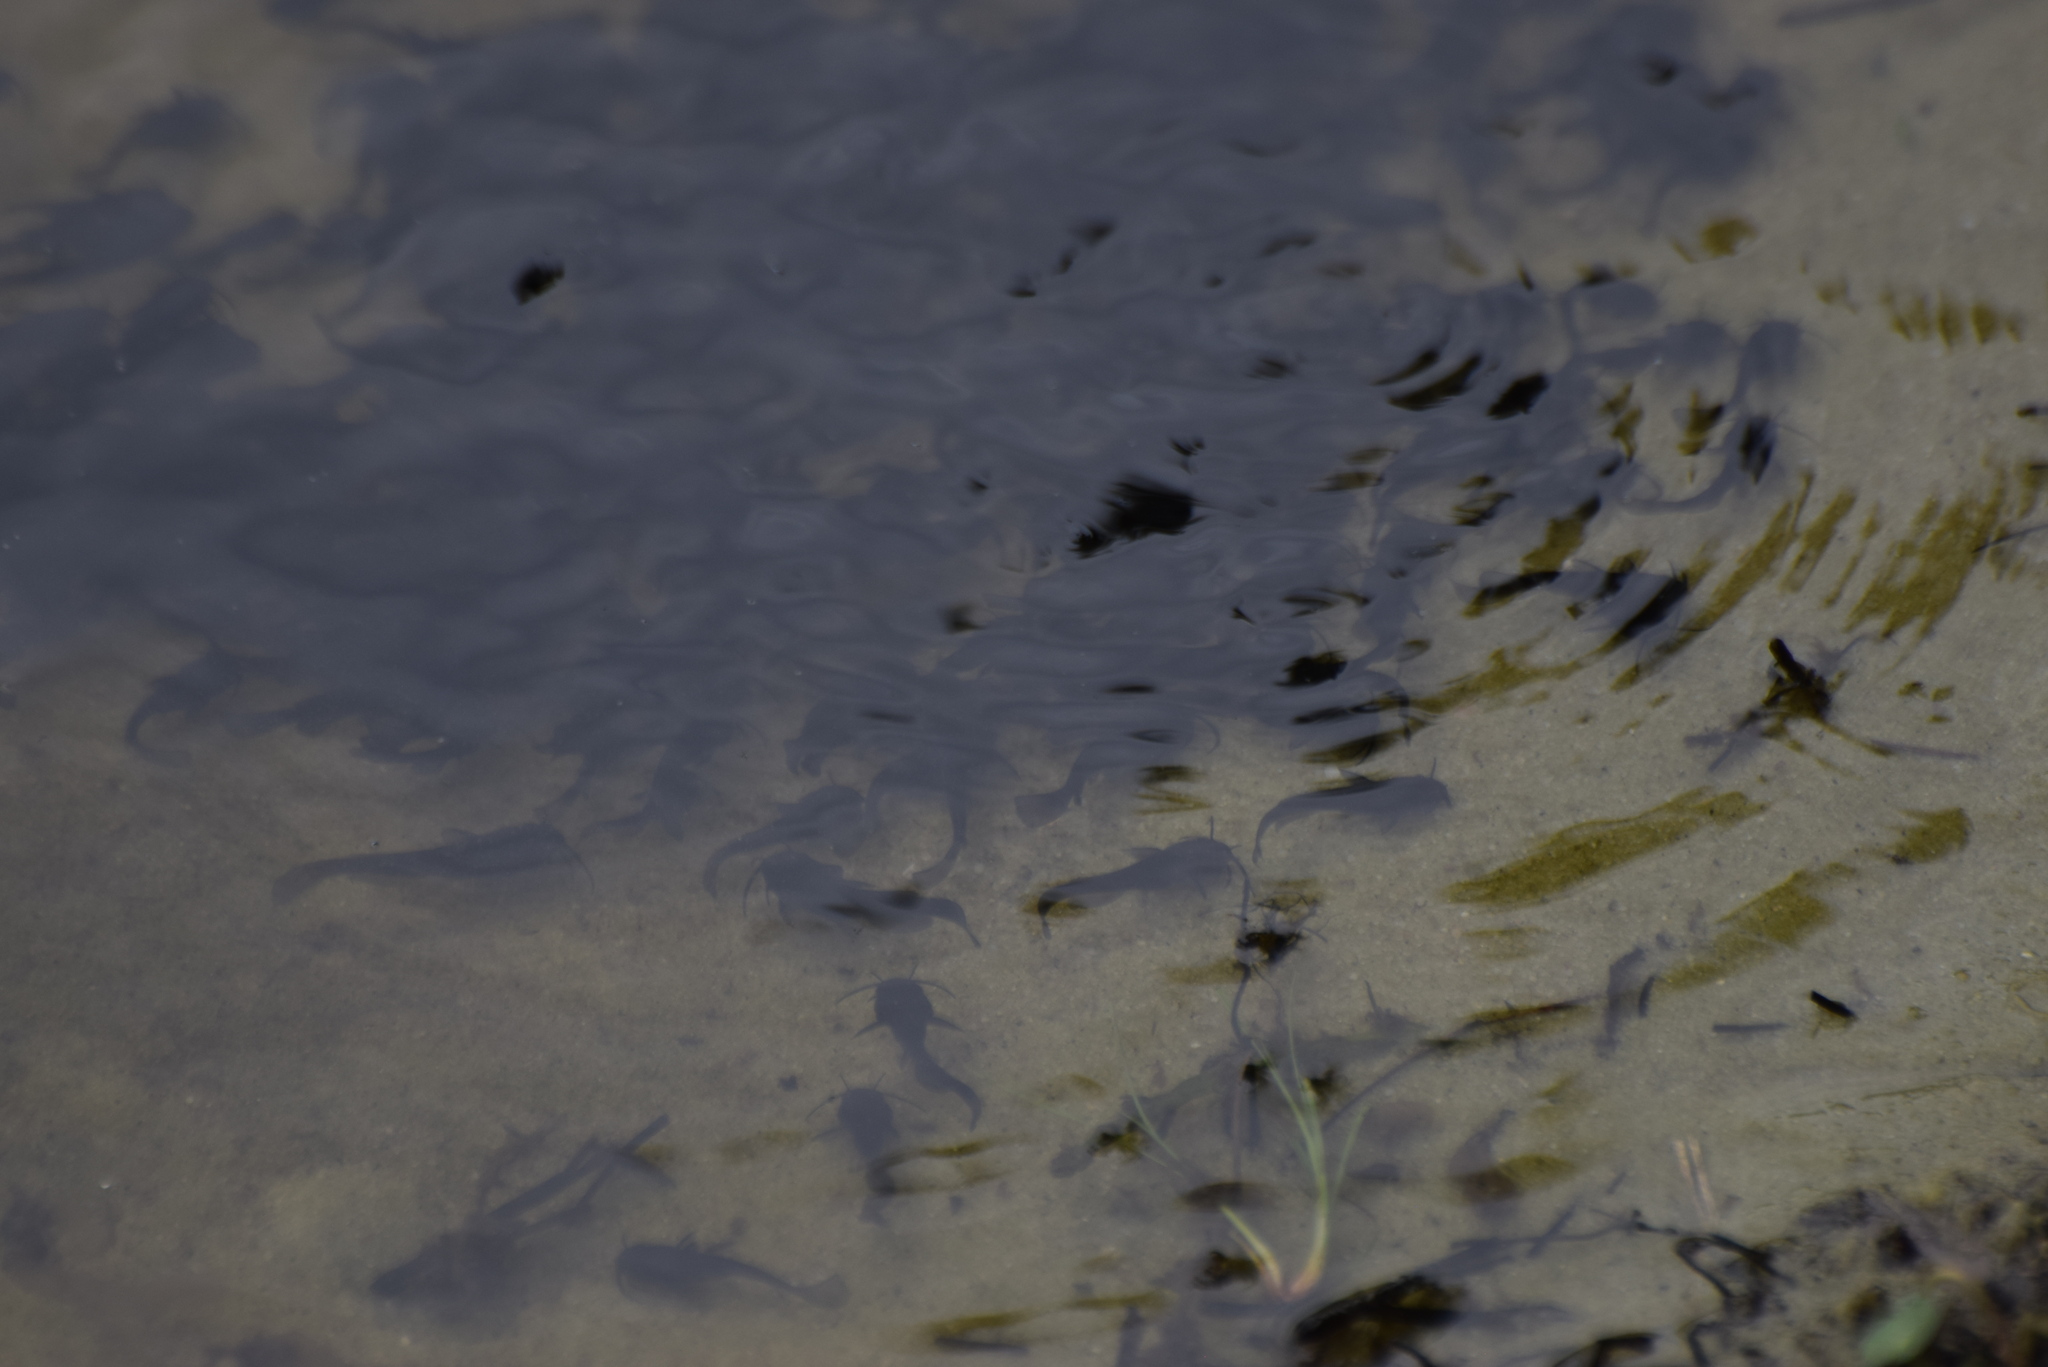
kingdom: Animalia
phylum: Chordata
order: Siluriformes
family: Ictaluridae
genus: Ameiurus
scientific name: Ameiurus nebulosus
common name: Brown bullhead
